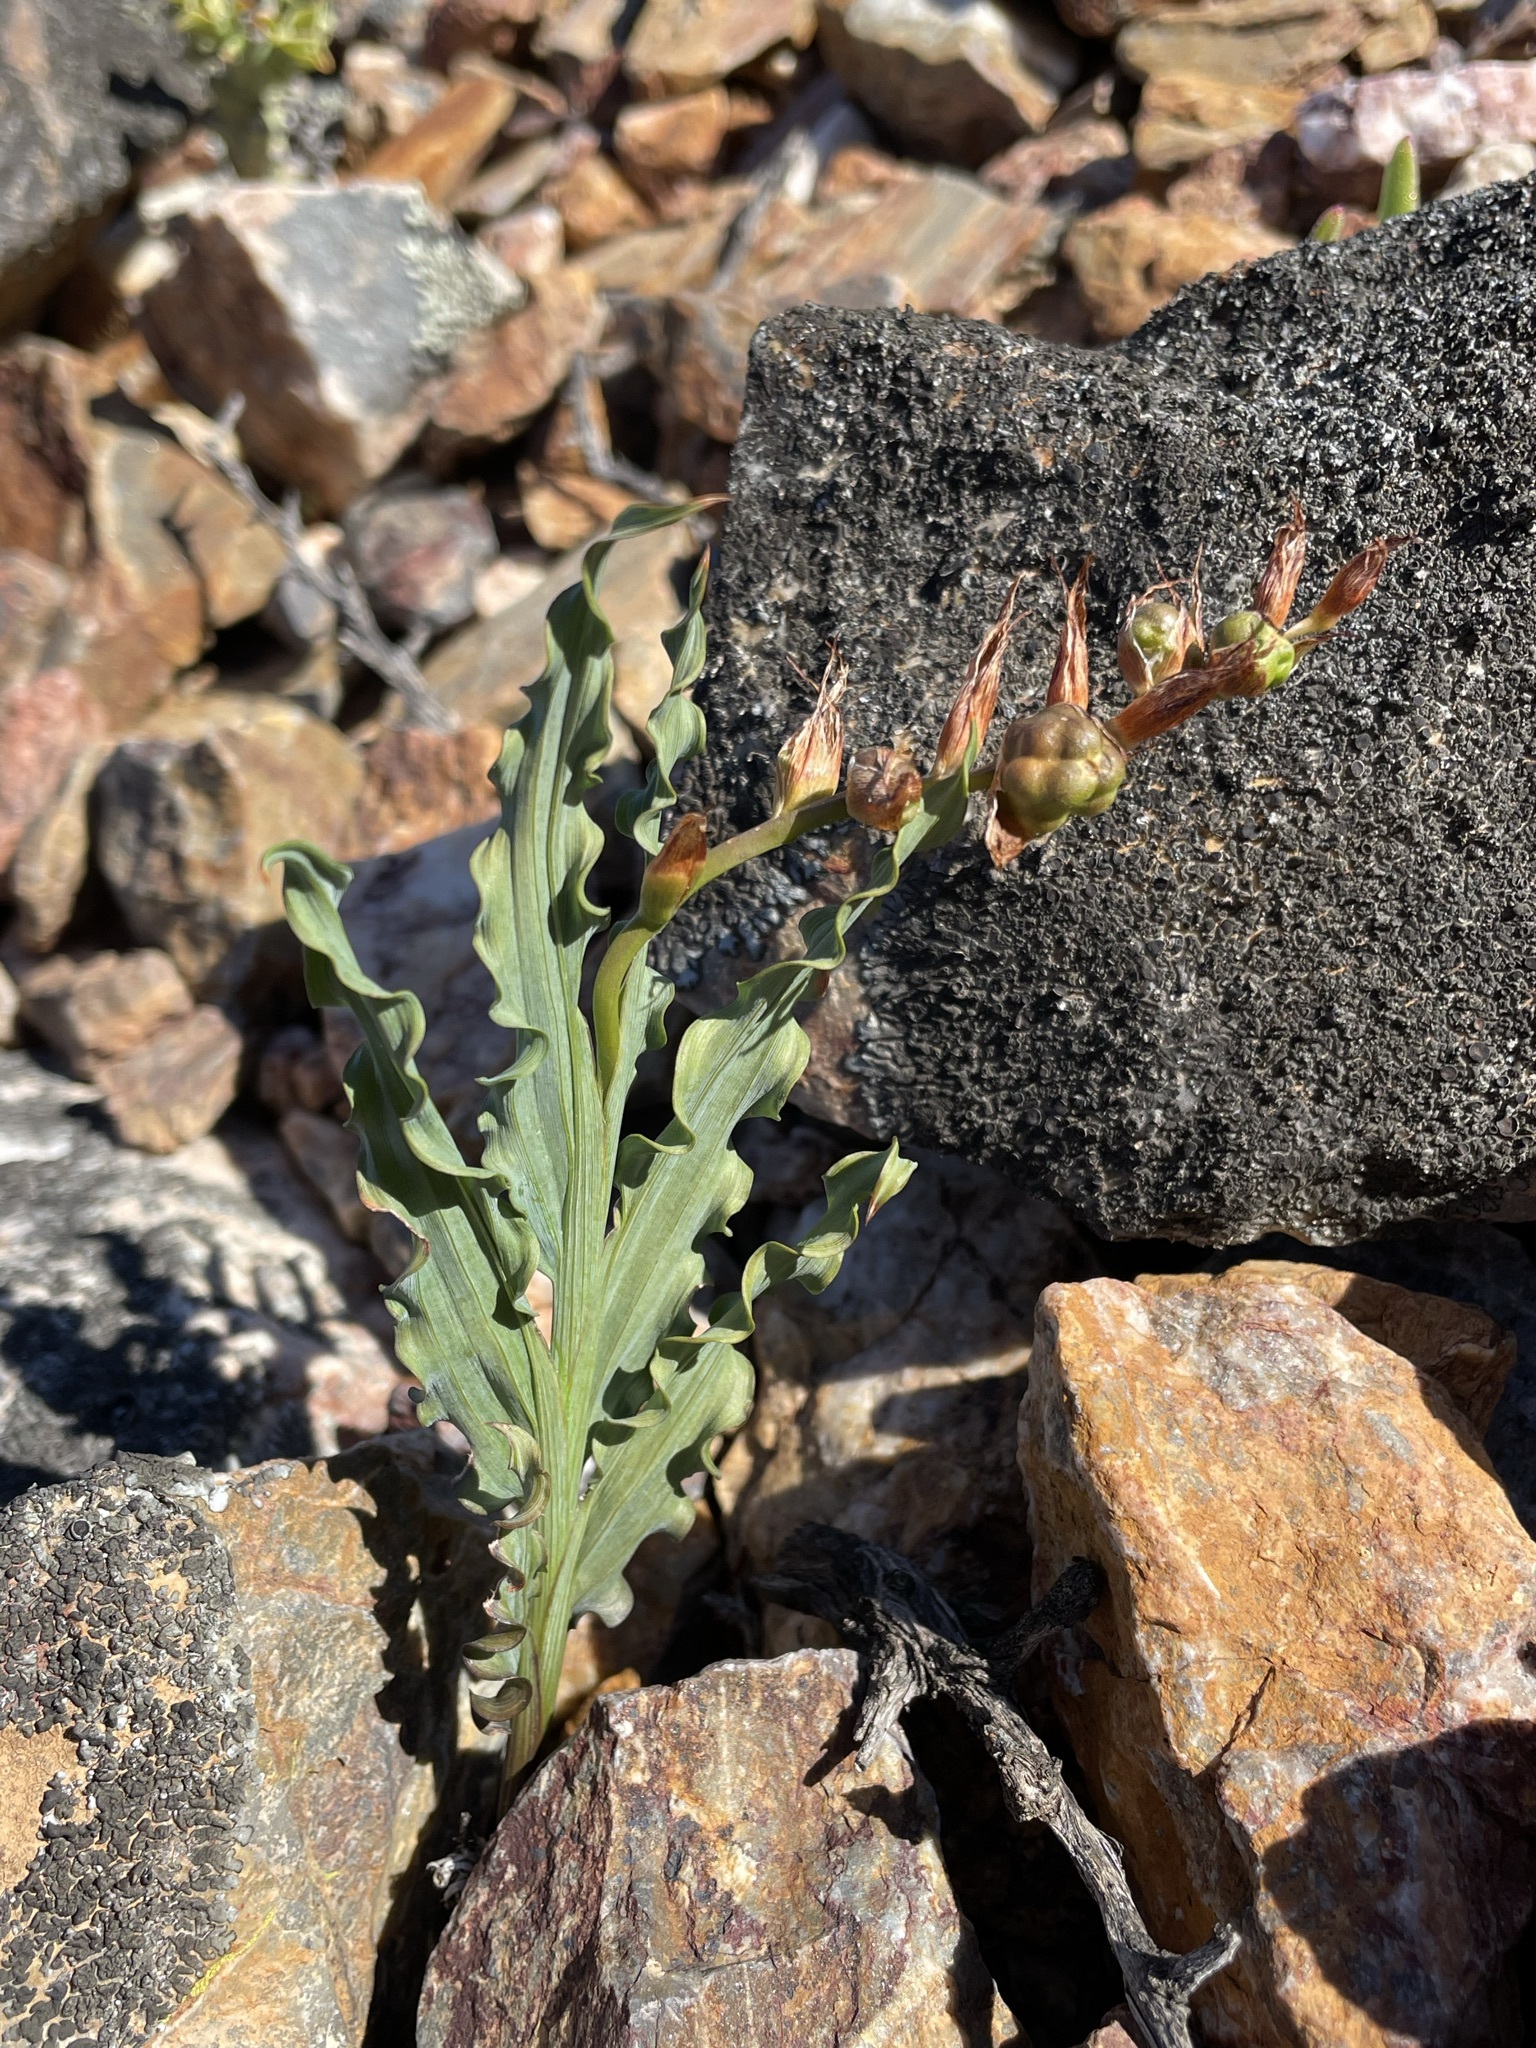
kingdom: Plantae
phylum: Tracheophyta
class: Liliopsida
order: Asparagales
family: Iridaceae
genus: Freesia
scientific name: Freesia viridis
